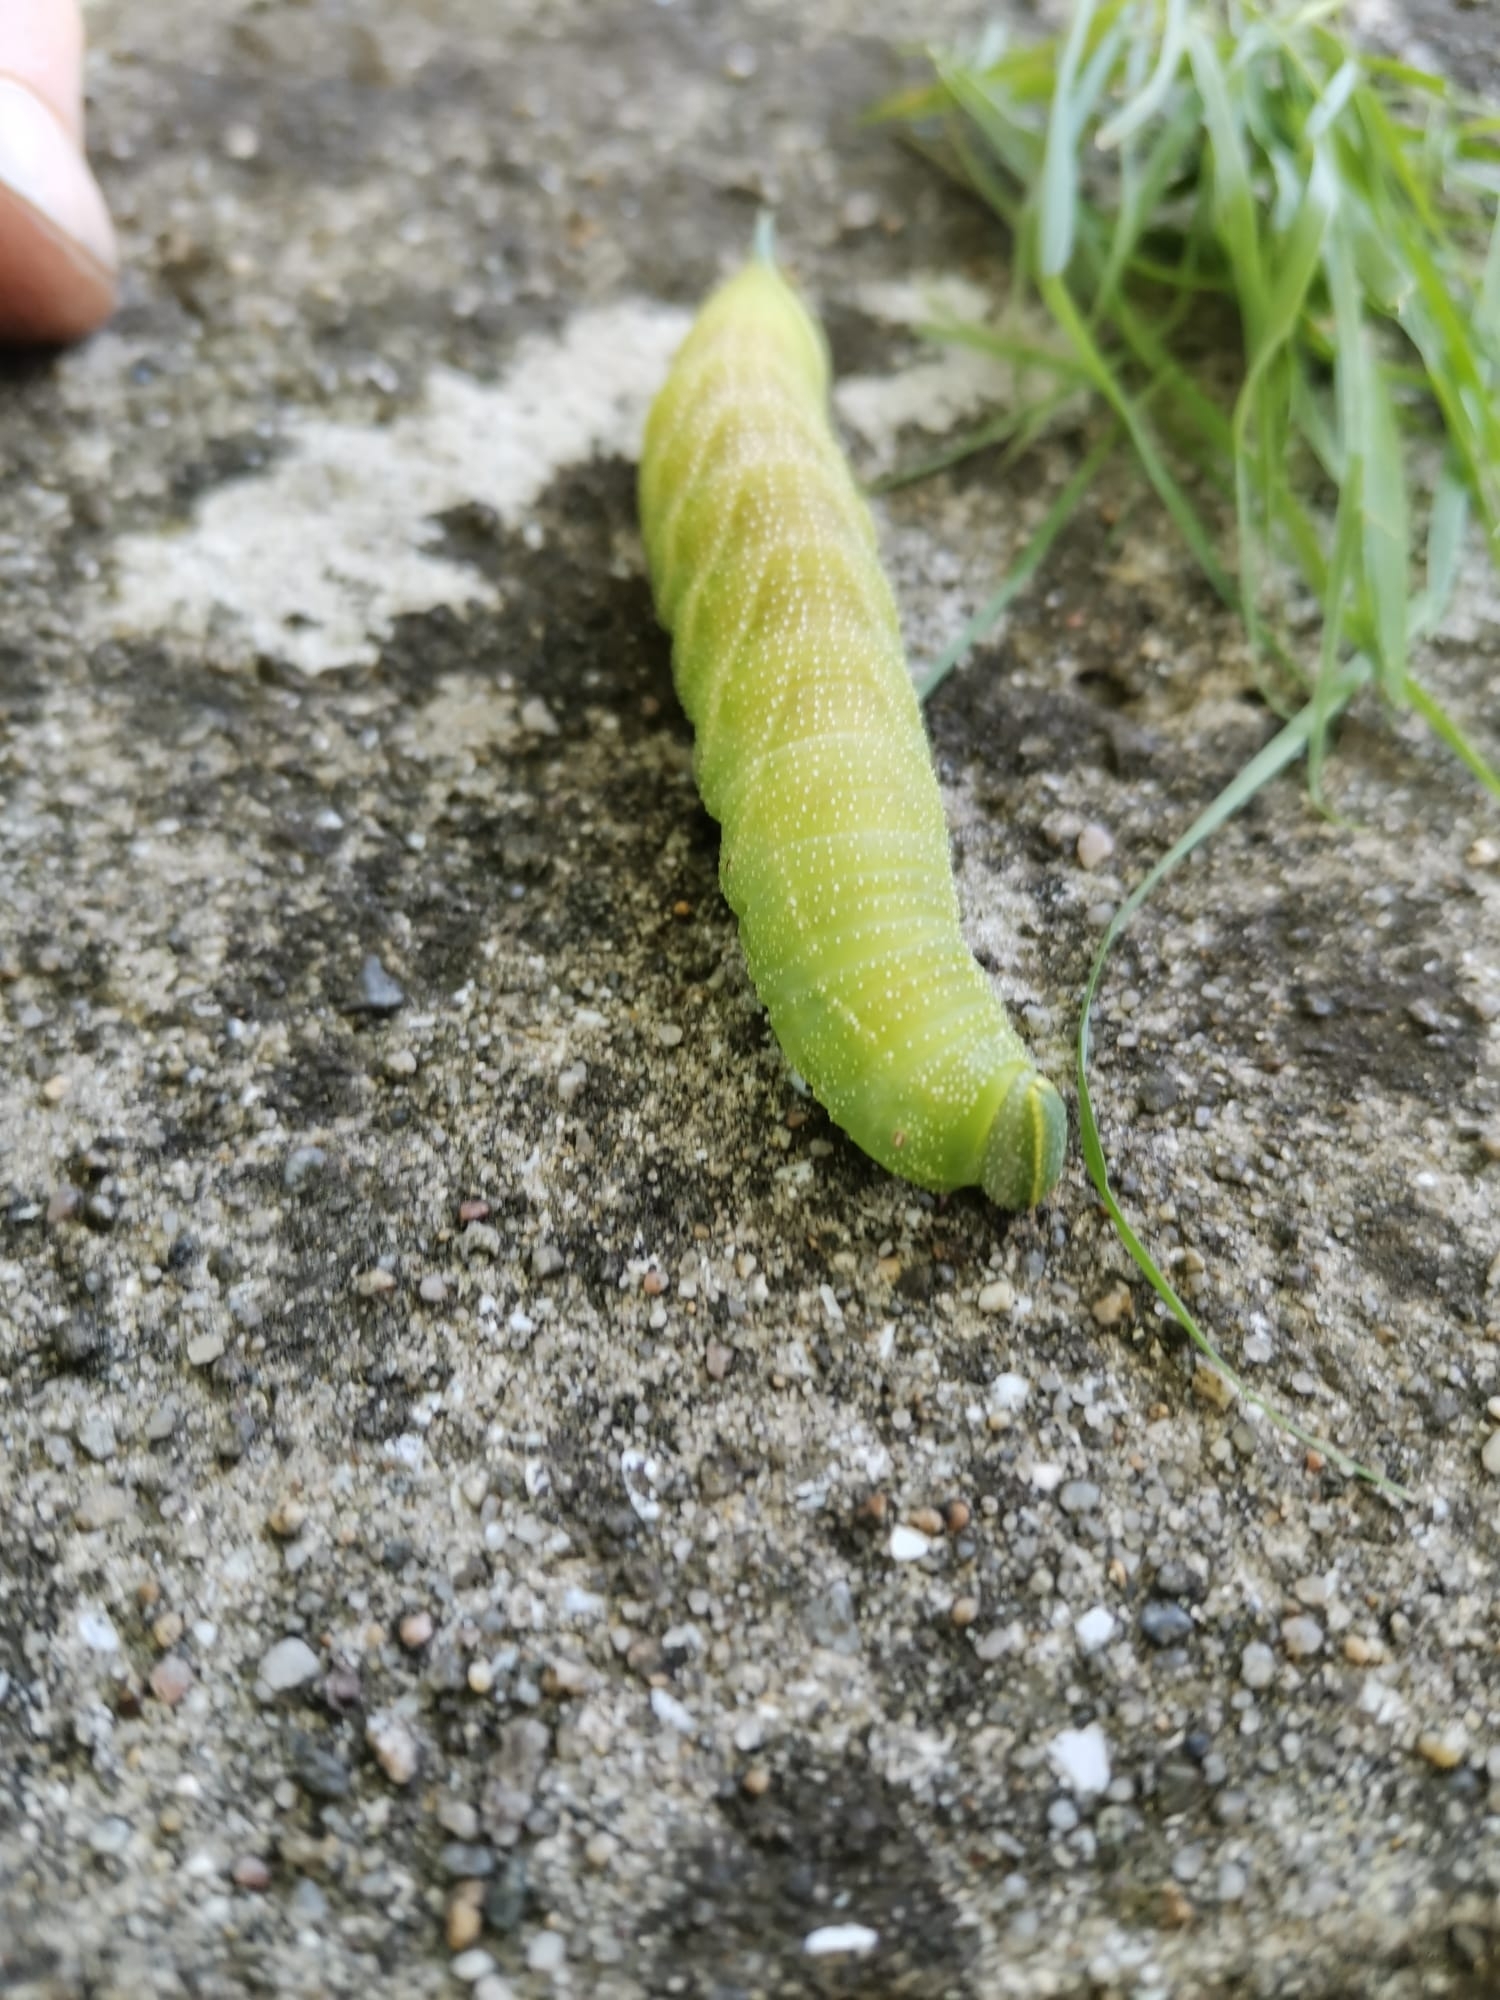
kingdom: Animalia
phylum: Arthropoda
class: Insecta
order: Lepidoptera
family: Sphingidae
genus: Smerinthus
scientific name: Smerinthus ocellata
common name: Eyed hawk-moth
